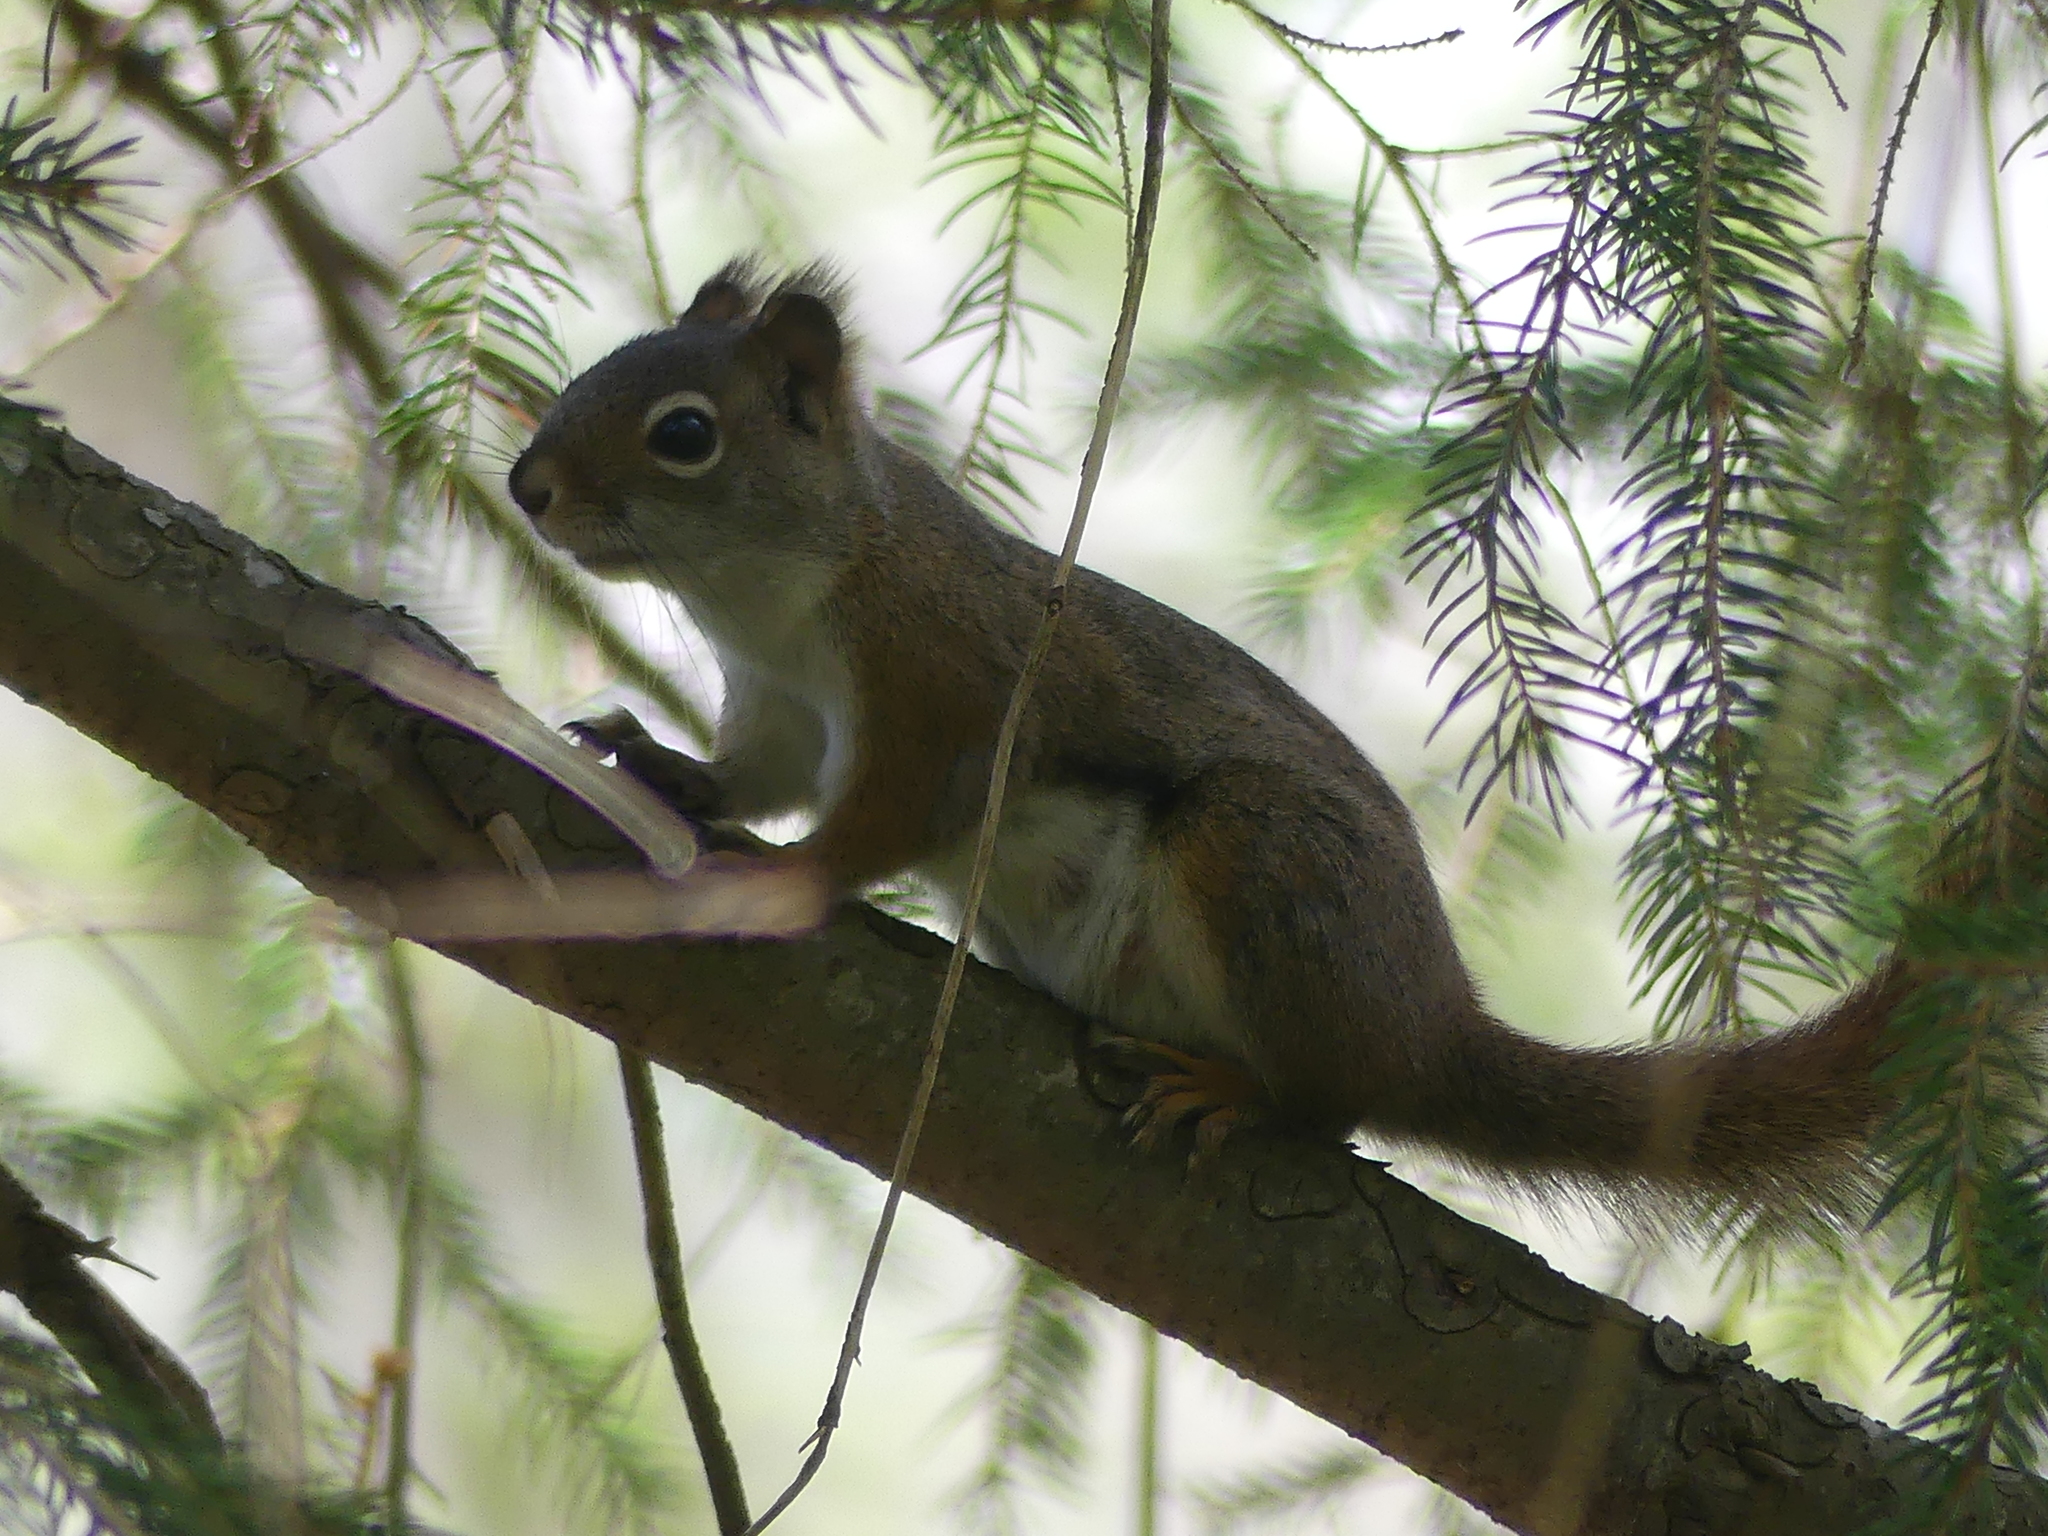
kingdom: Animalia
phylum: Chordata
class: Mammalia
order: Rodentia
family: Sciuridae
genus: Tamiasciurus
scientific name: Tamiasciurus hudsonicus
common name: Red squirrel
